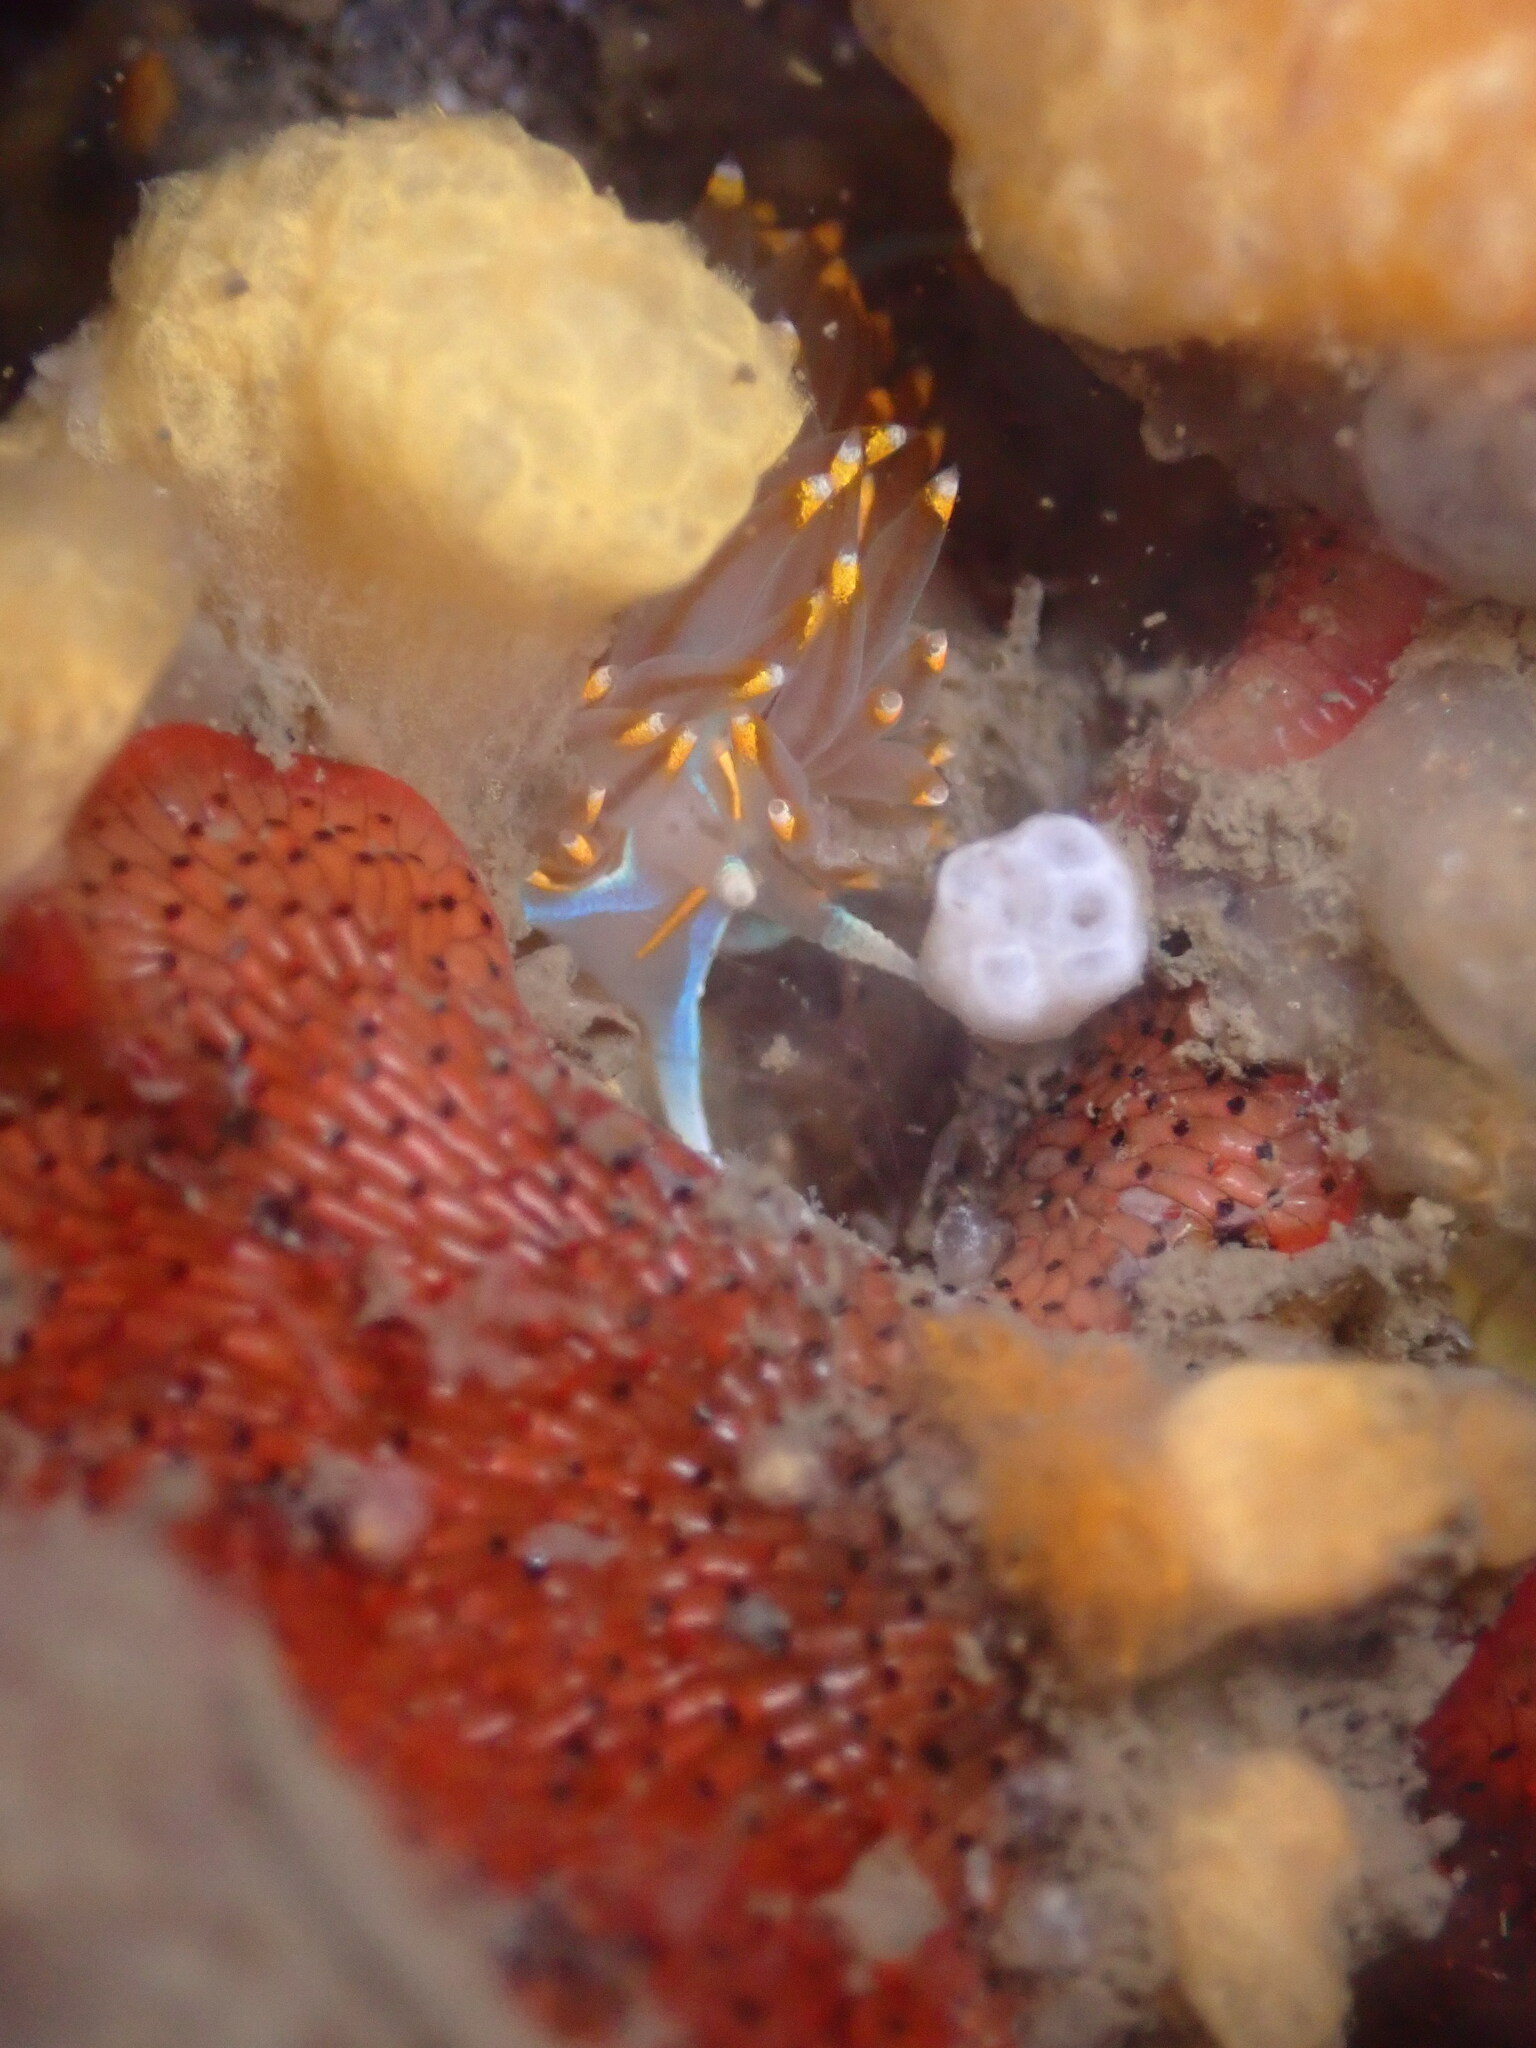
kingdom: Animalia
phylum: Mollusca
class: Gastropoda
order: Nudibranchia
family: Myrrhinidae
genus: Hermissenda
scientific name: Hermissenda opalescens
